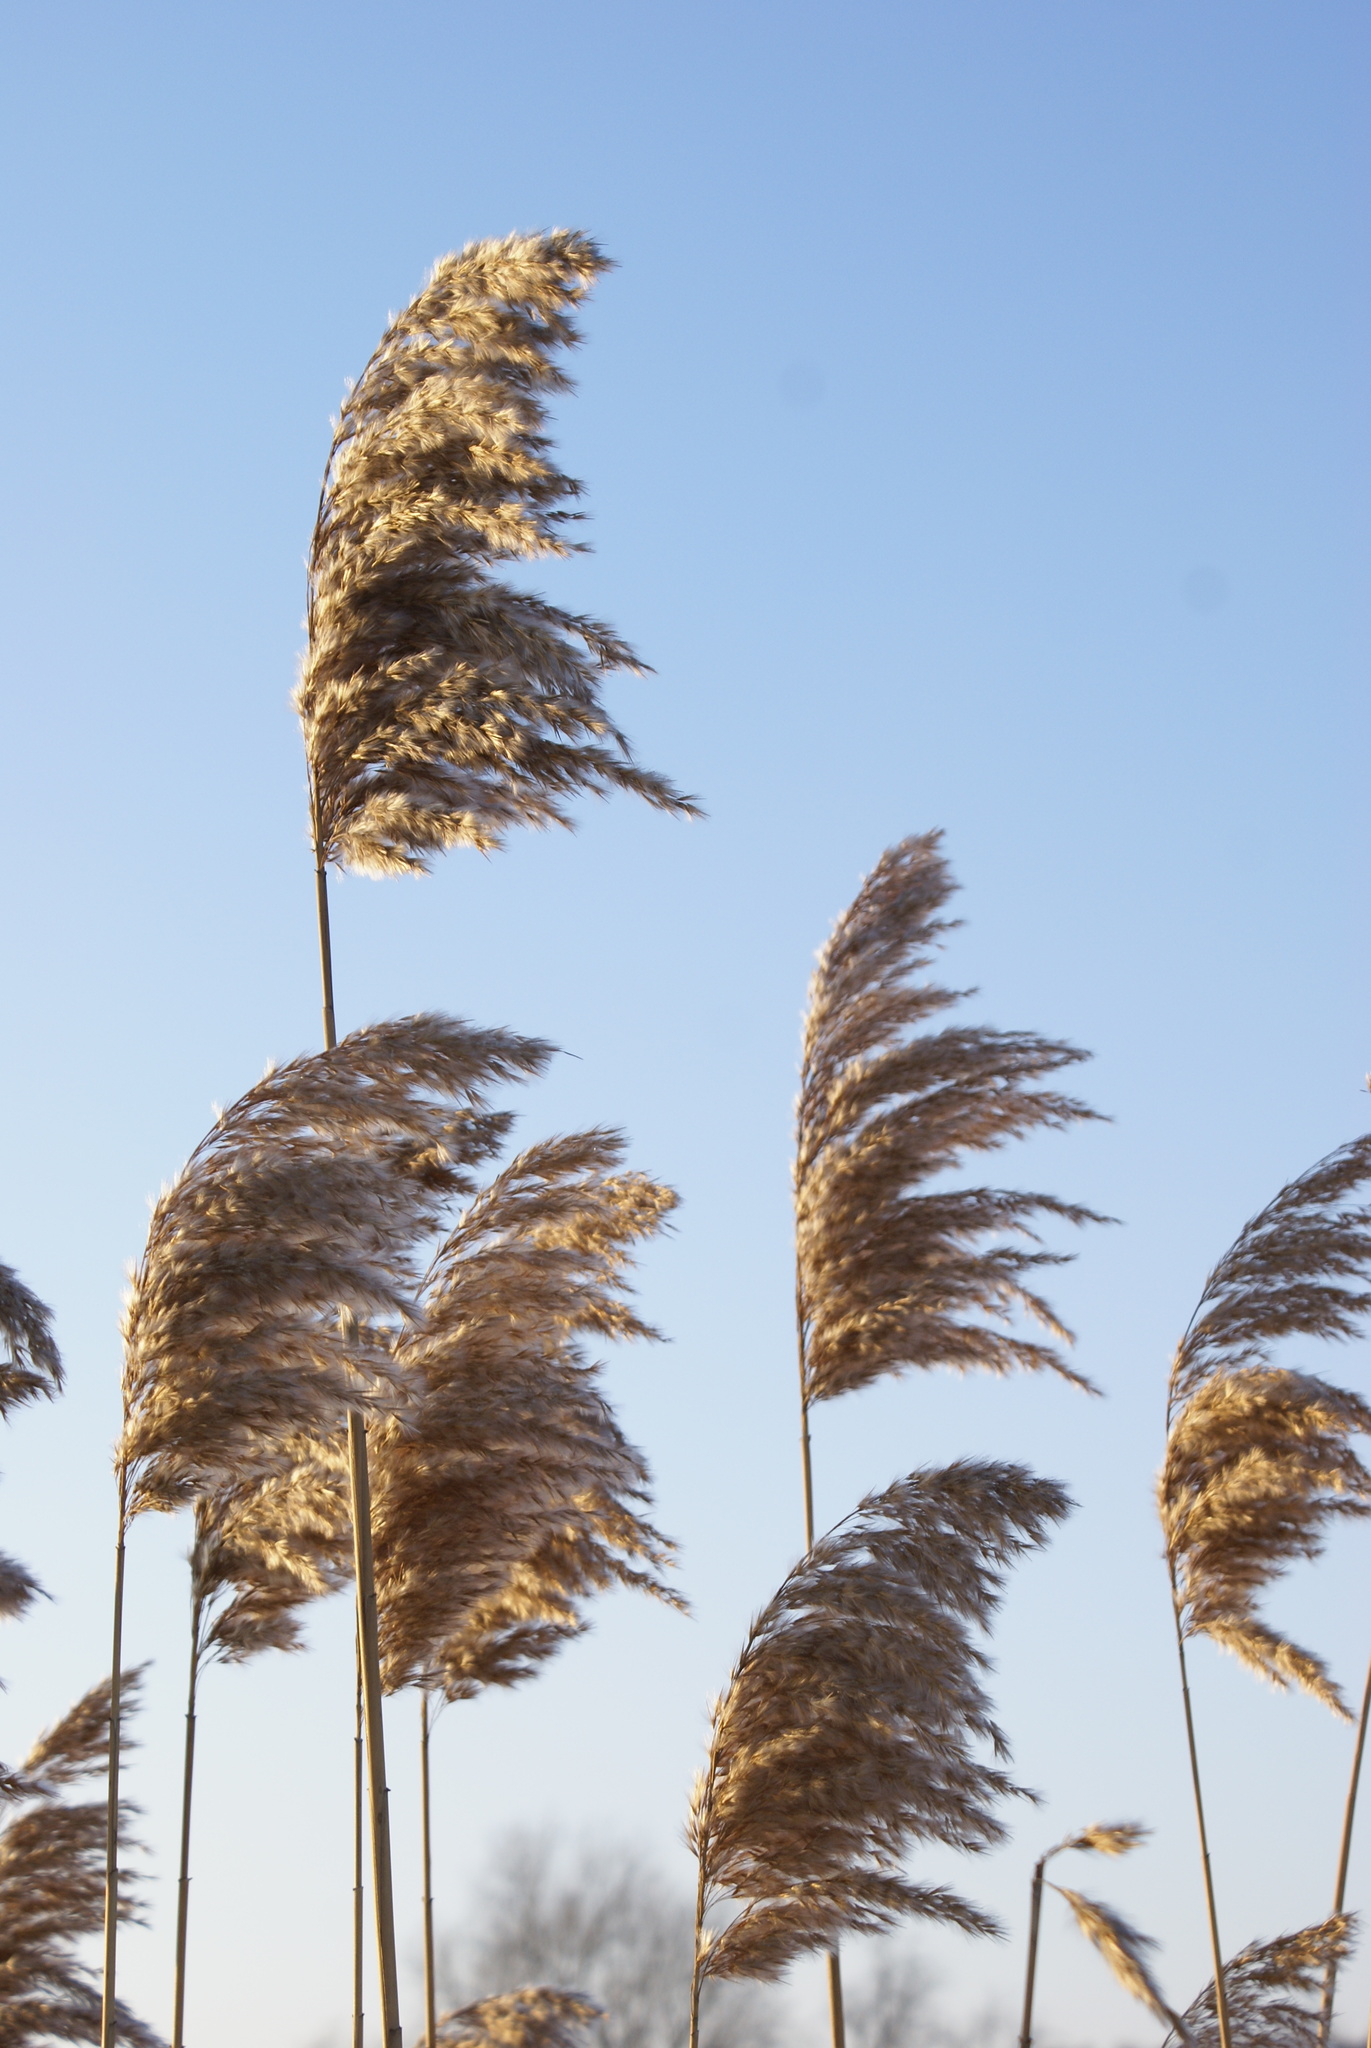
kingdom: Plantae
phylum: Tracheophyta
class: Liliopsida
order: Poales
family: Poaceae
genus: Phragmites
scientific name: Phragmites australis
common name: Common reed
